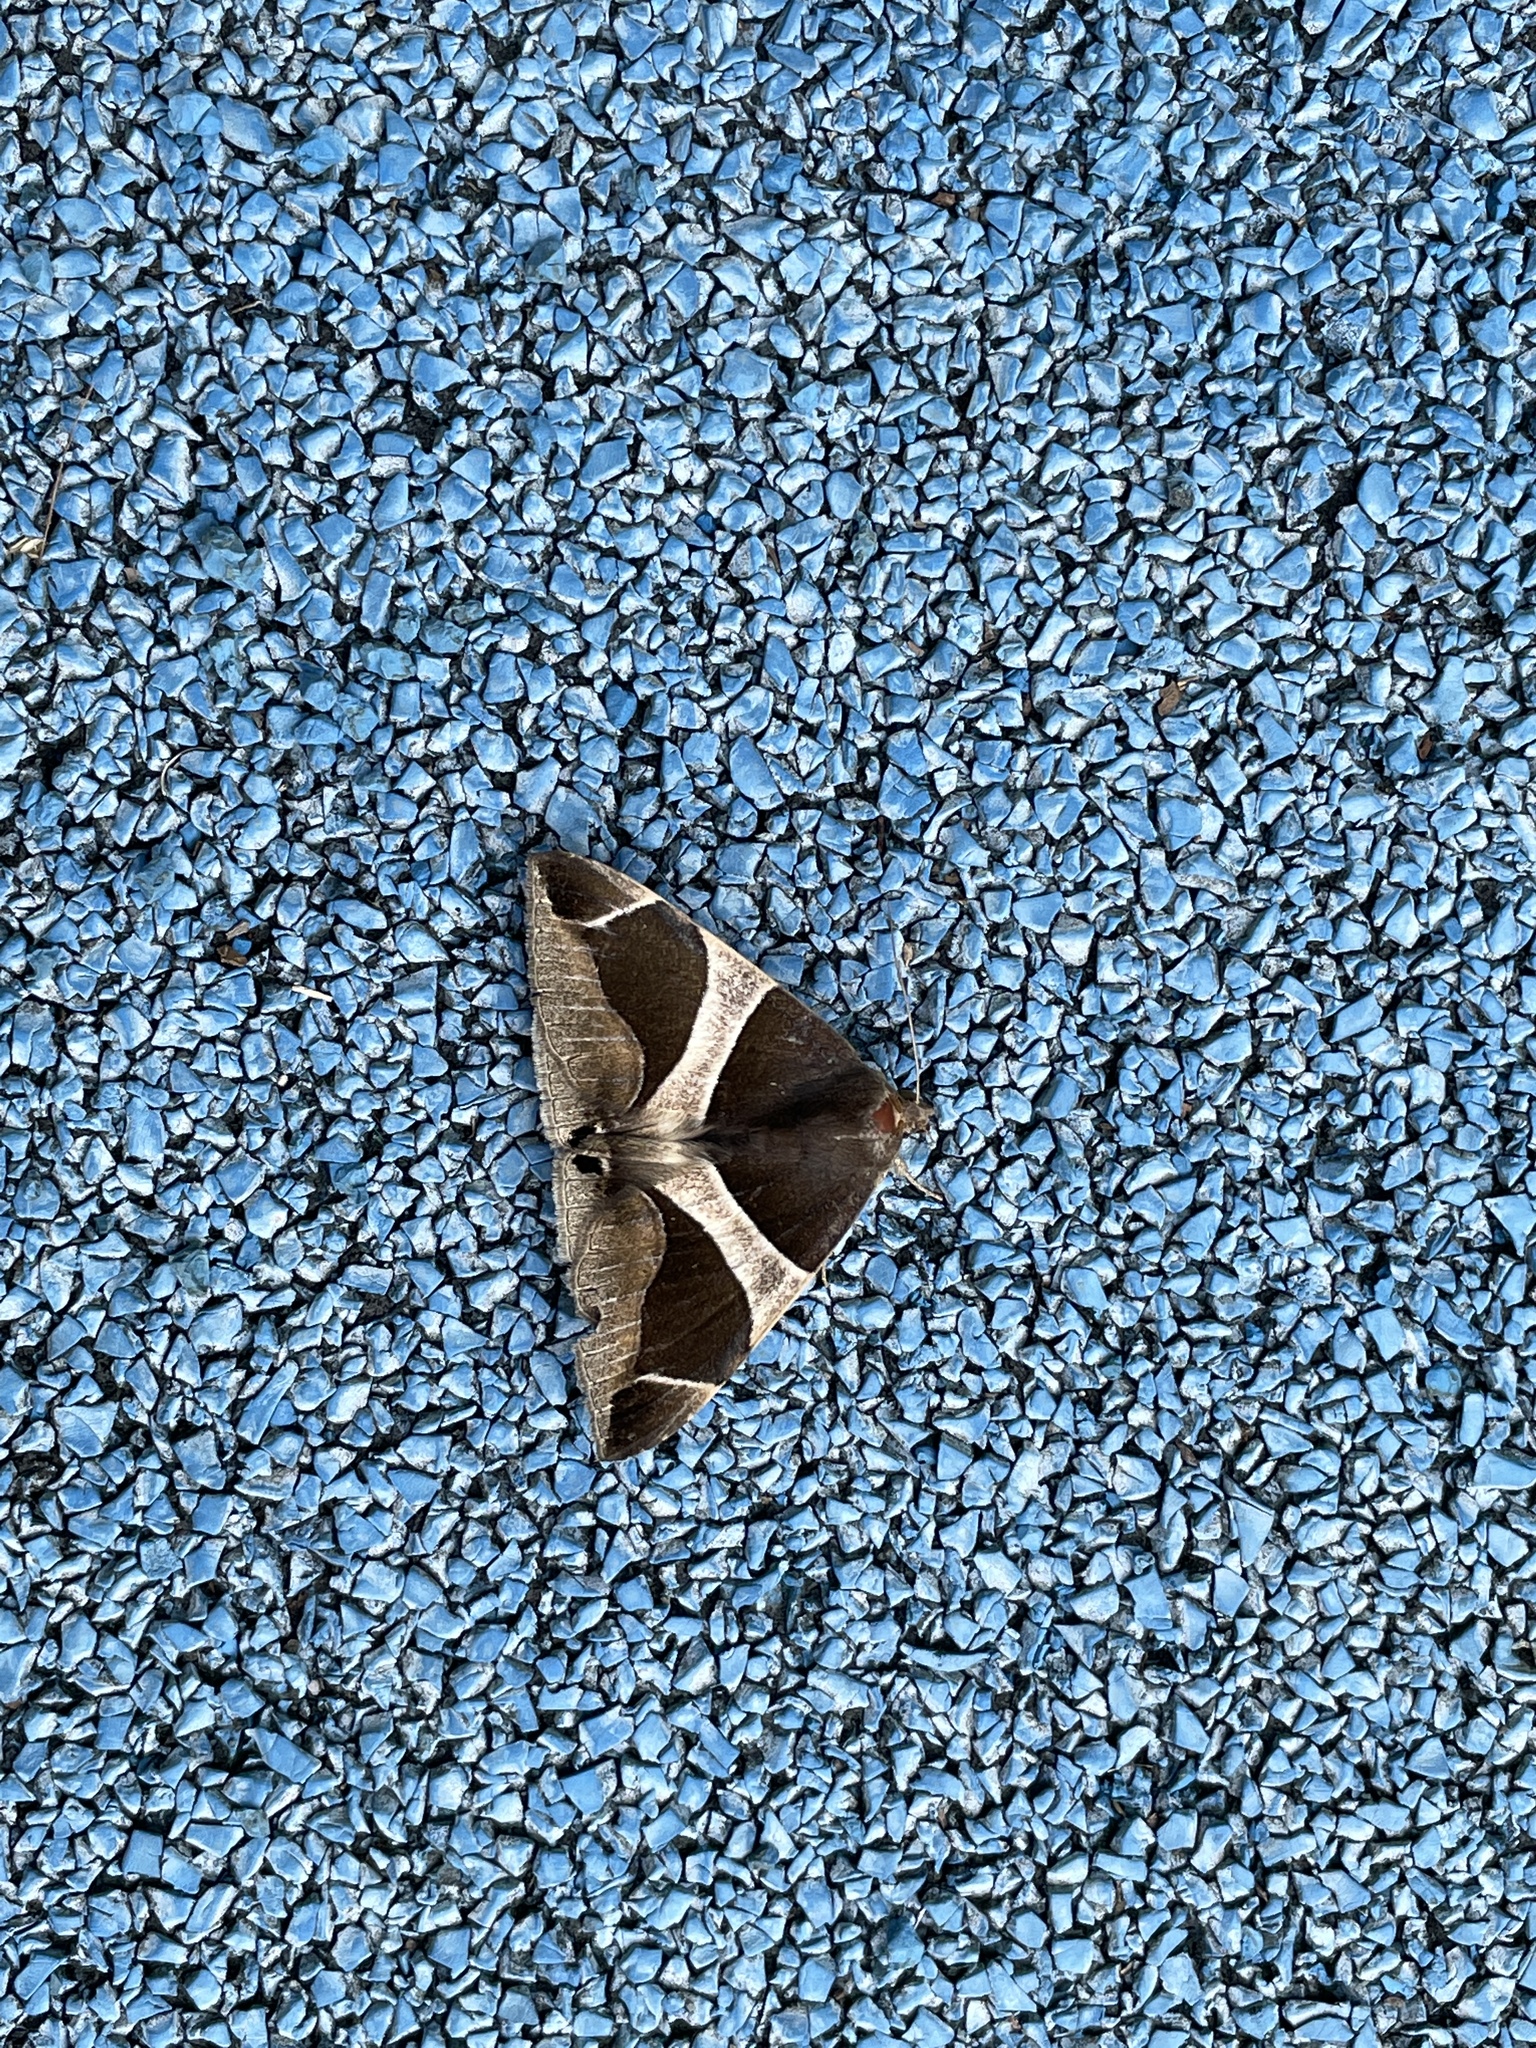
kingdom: Animalia
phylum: Arthropoda
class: Insecta
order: Lepidoptera
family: Erebidae
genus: Bastilla
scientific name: Bastilla crameri
